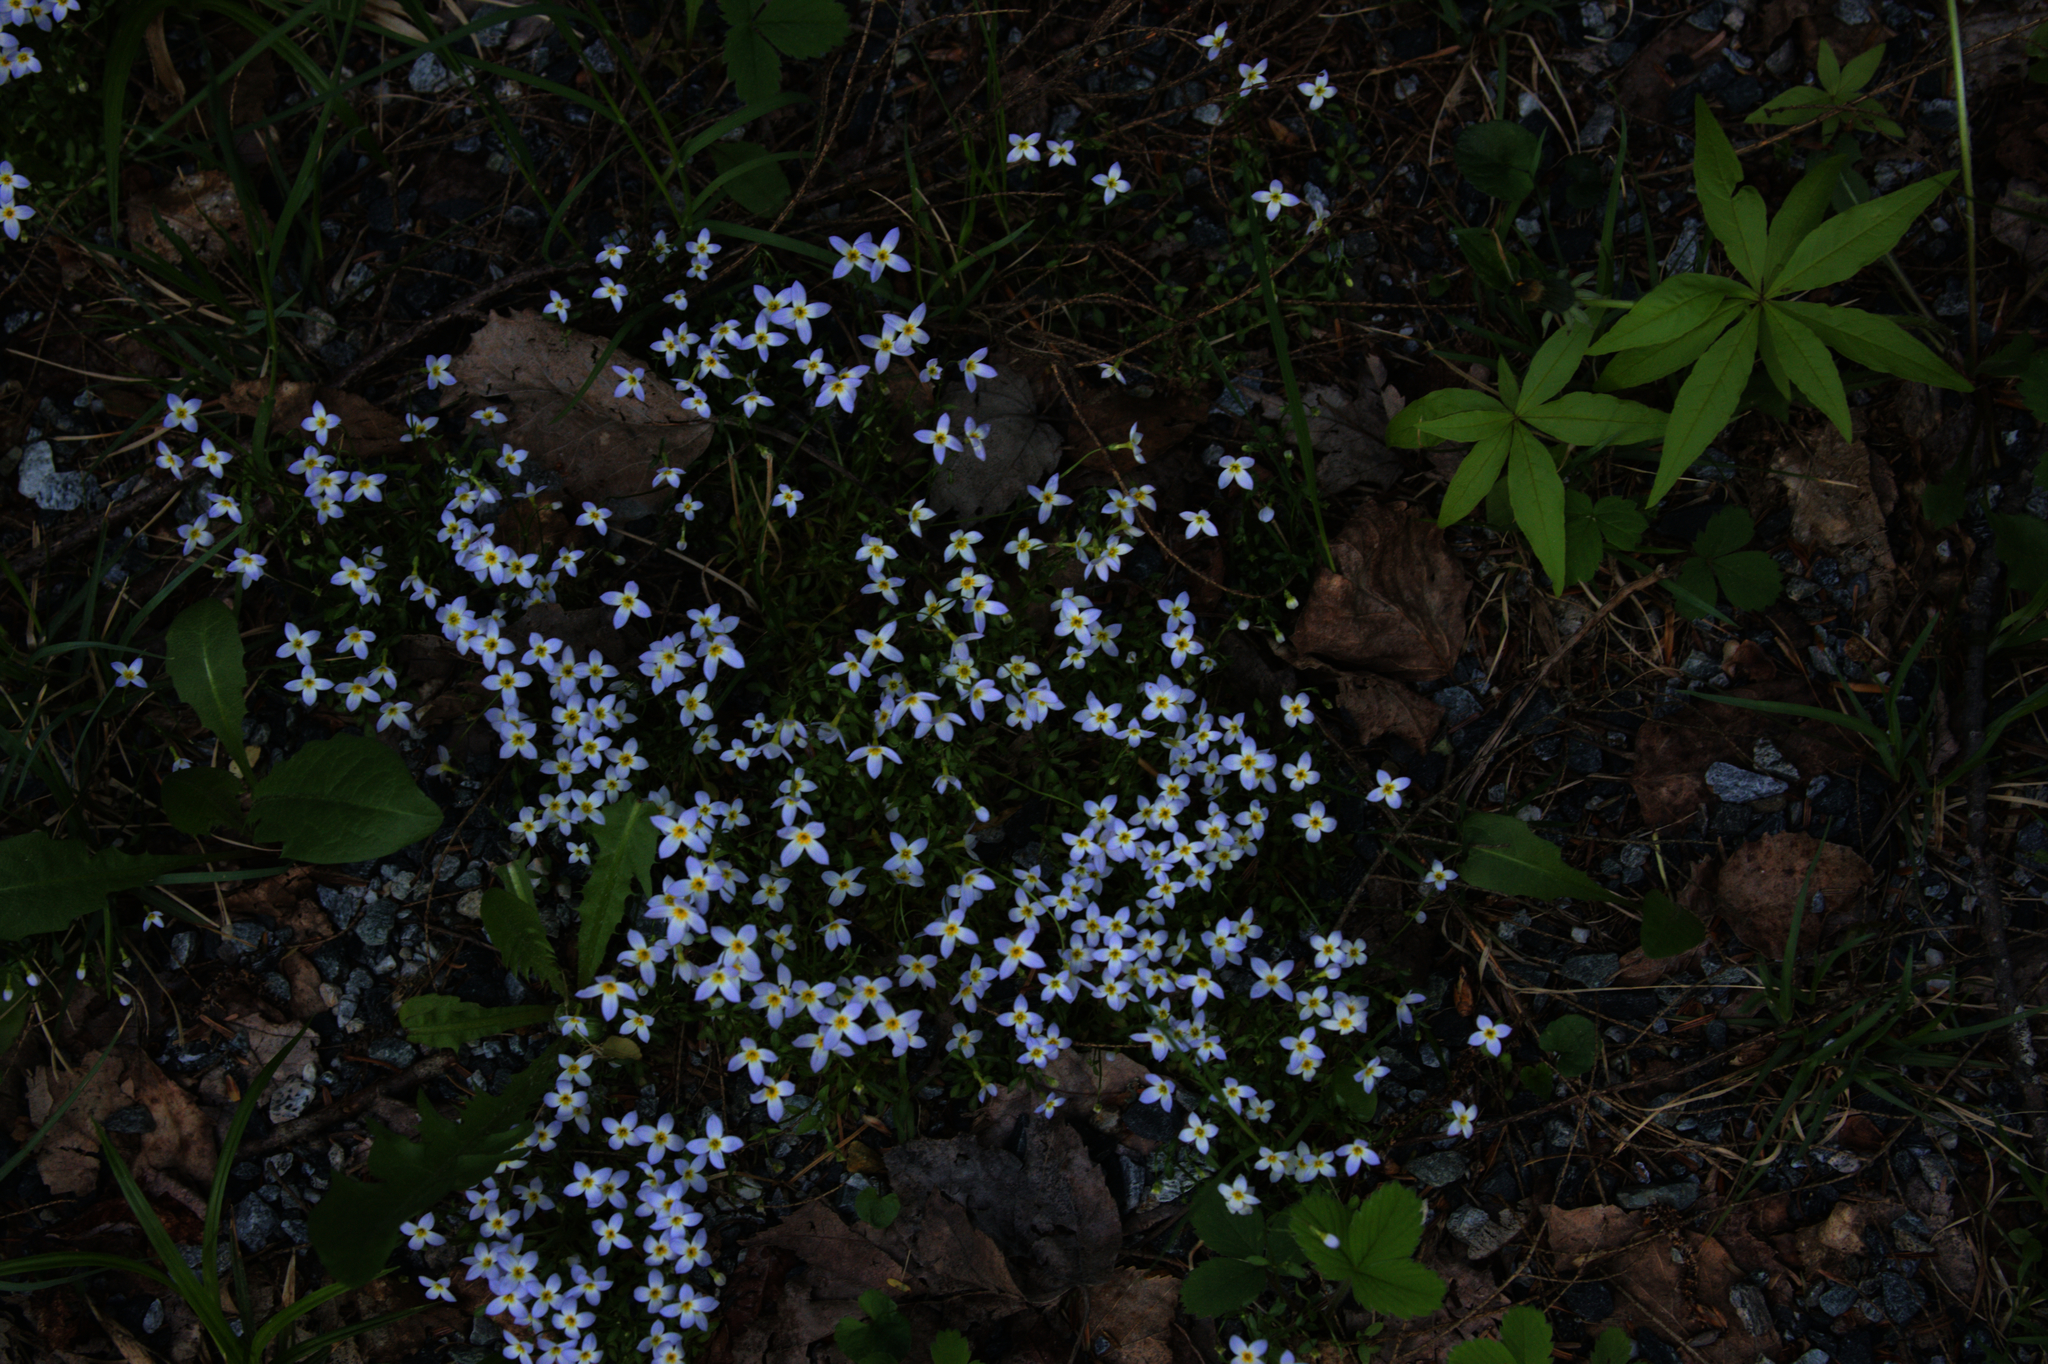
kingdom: Plantae
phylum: Tracheophyta
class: Magnoliopsida
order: Gentianales
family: Rubiaceae
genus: Houstonia
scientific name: Houstonia caerulea
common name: Bluets
